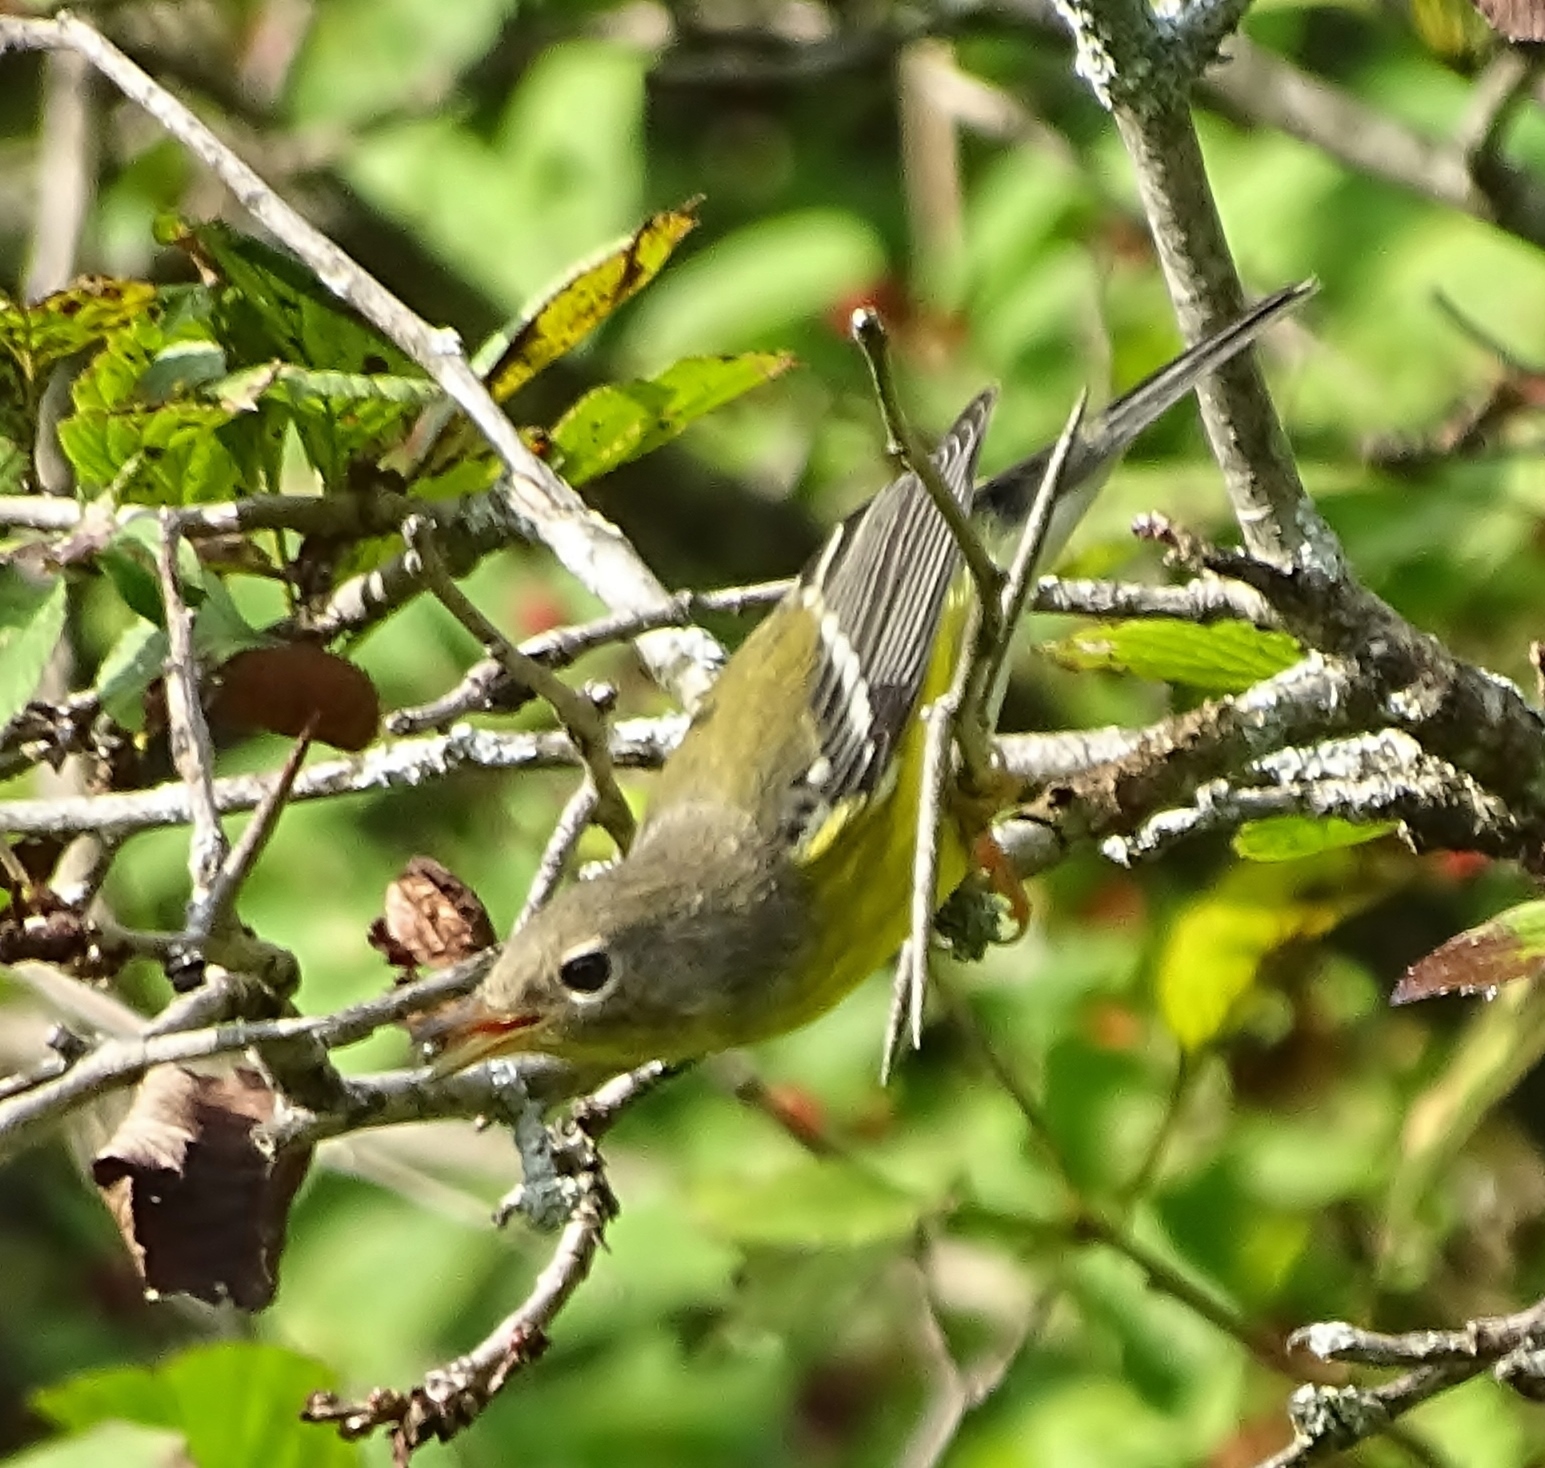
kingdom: Animalia
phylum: Chordata
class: Aves
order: Passeriformes
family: Parulidae
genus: Setophaga
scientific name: Setophaga magnolia
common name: Magnolia warbler
